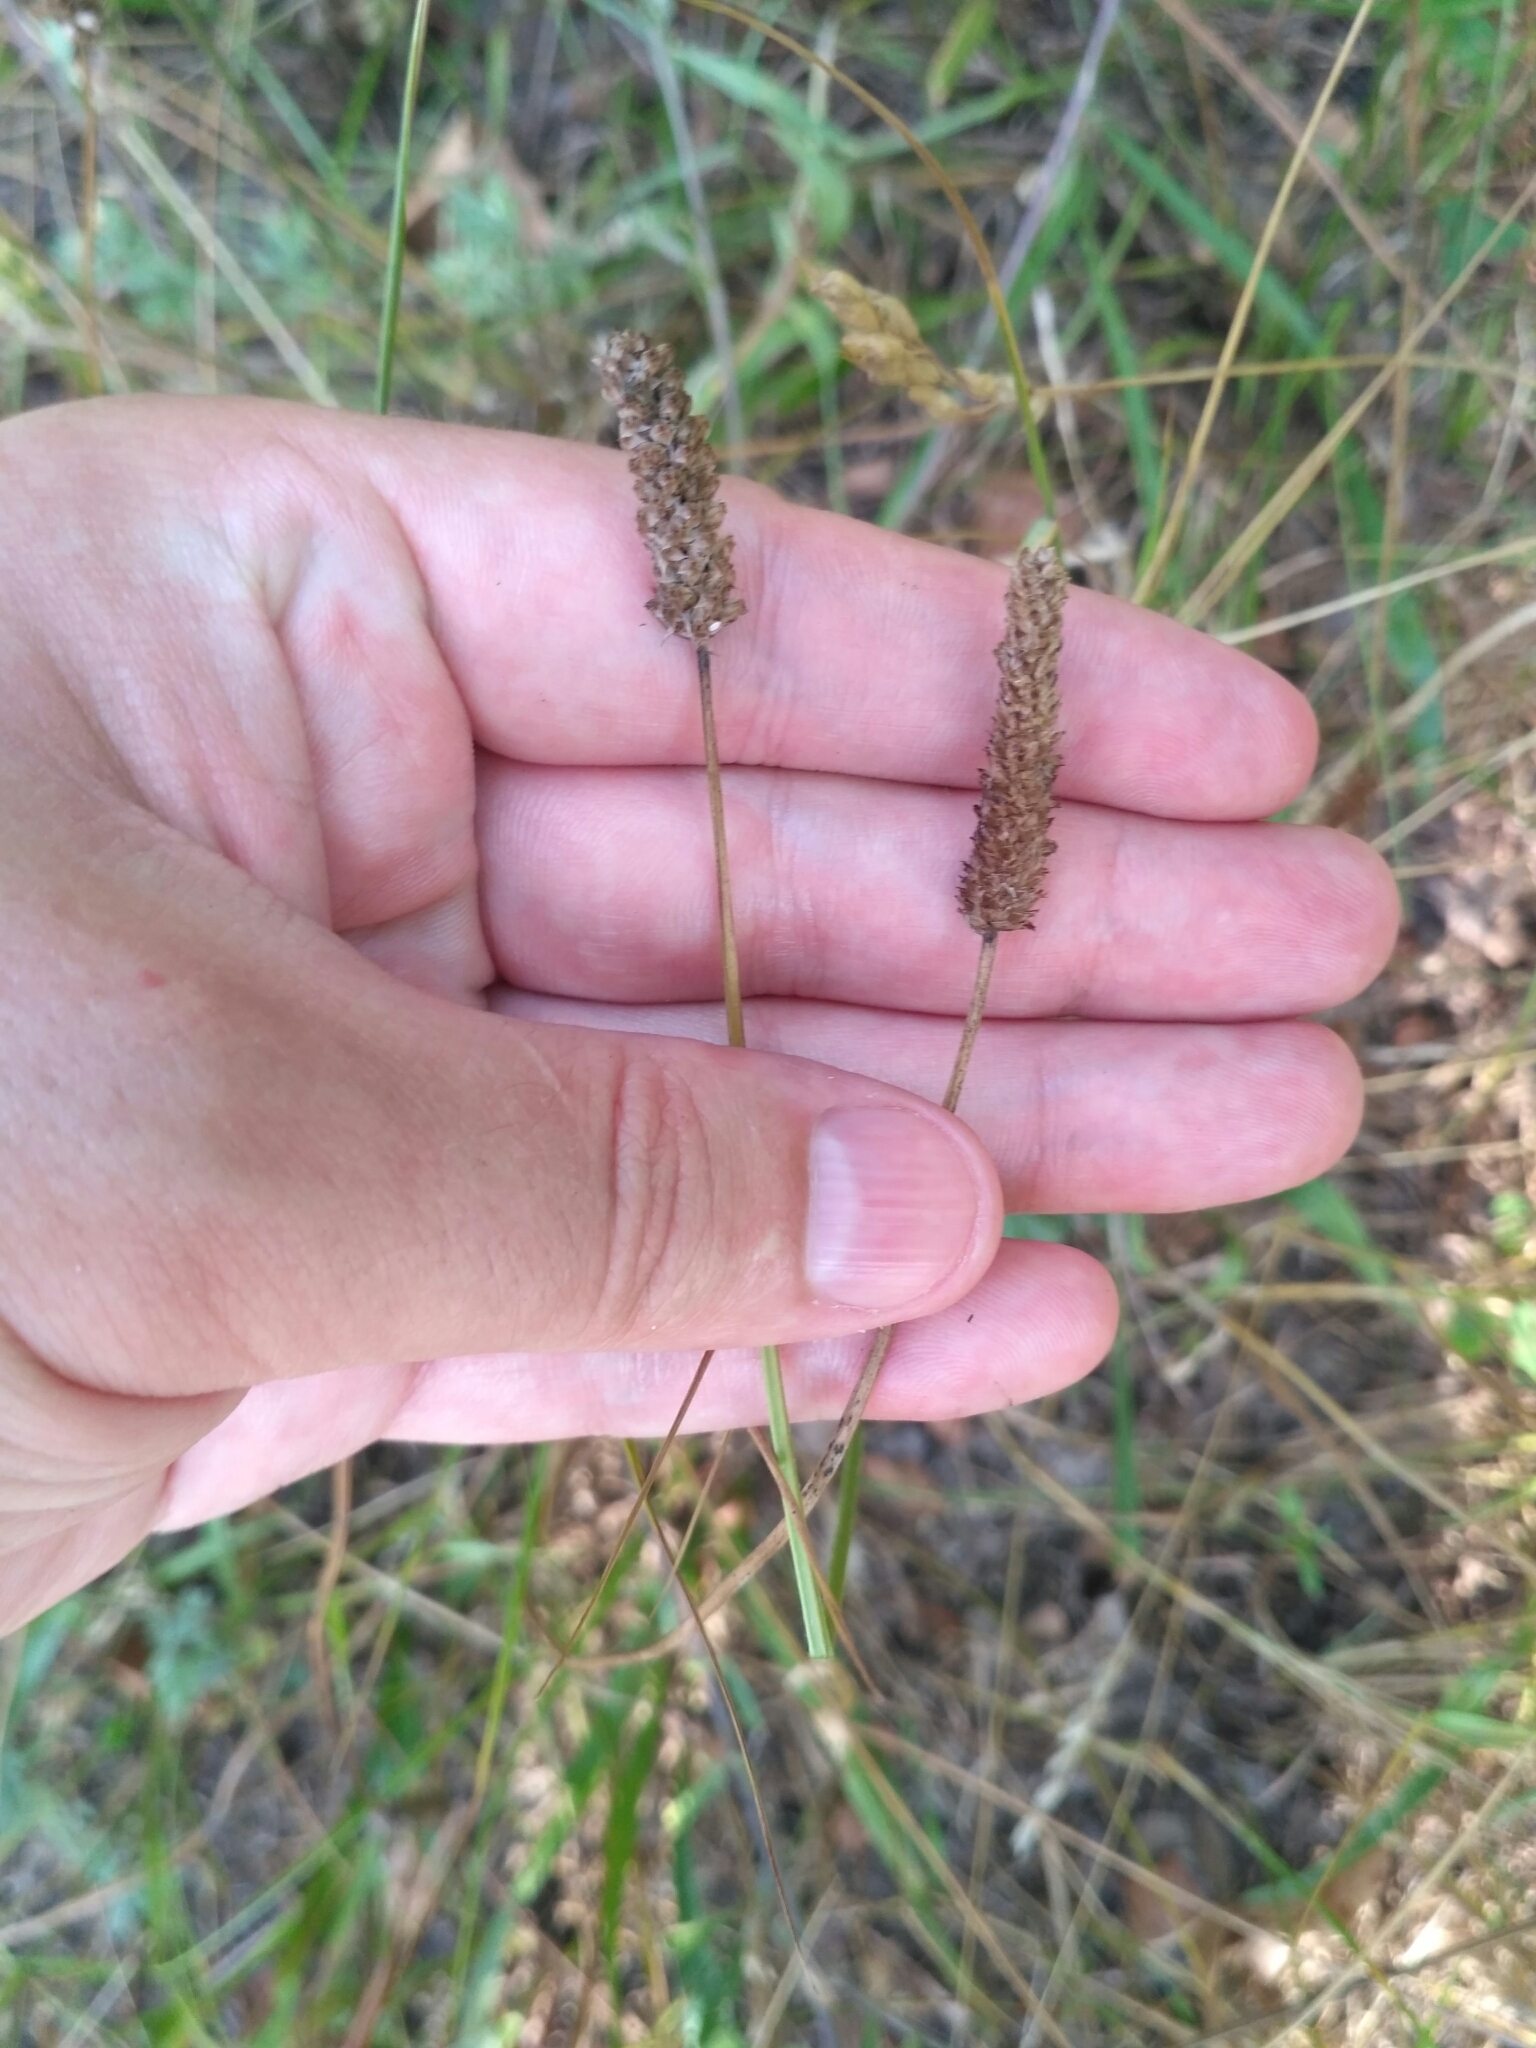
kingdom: Plantae
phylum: Tracheophyta
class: Magnoliopsida
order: Lamiales
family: Plantaginaceae
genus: Plantago
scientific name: Plantago lanceolata
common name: Ribwort plantain
